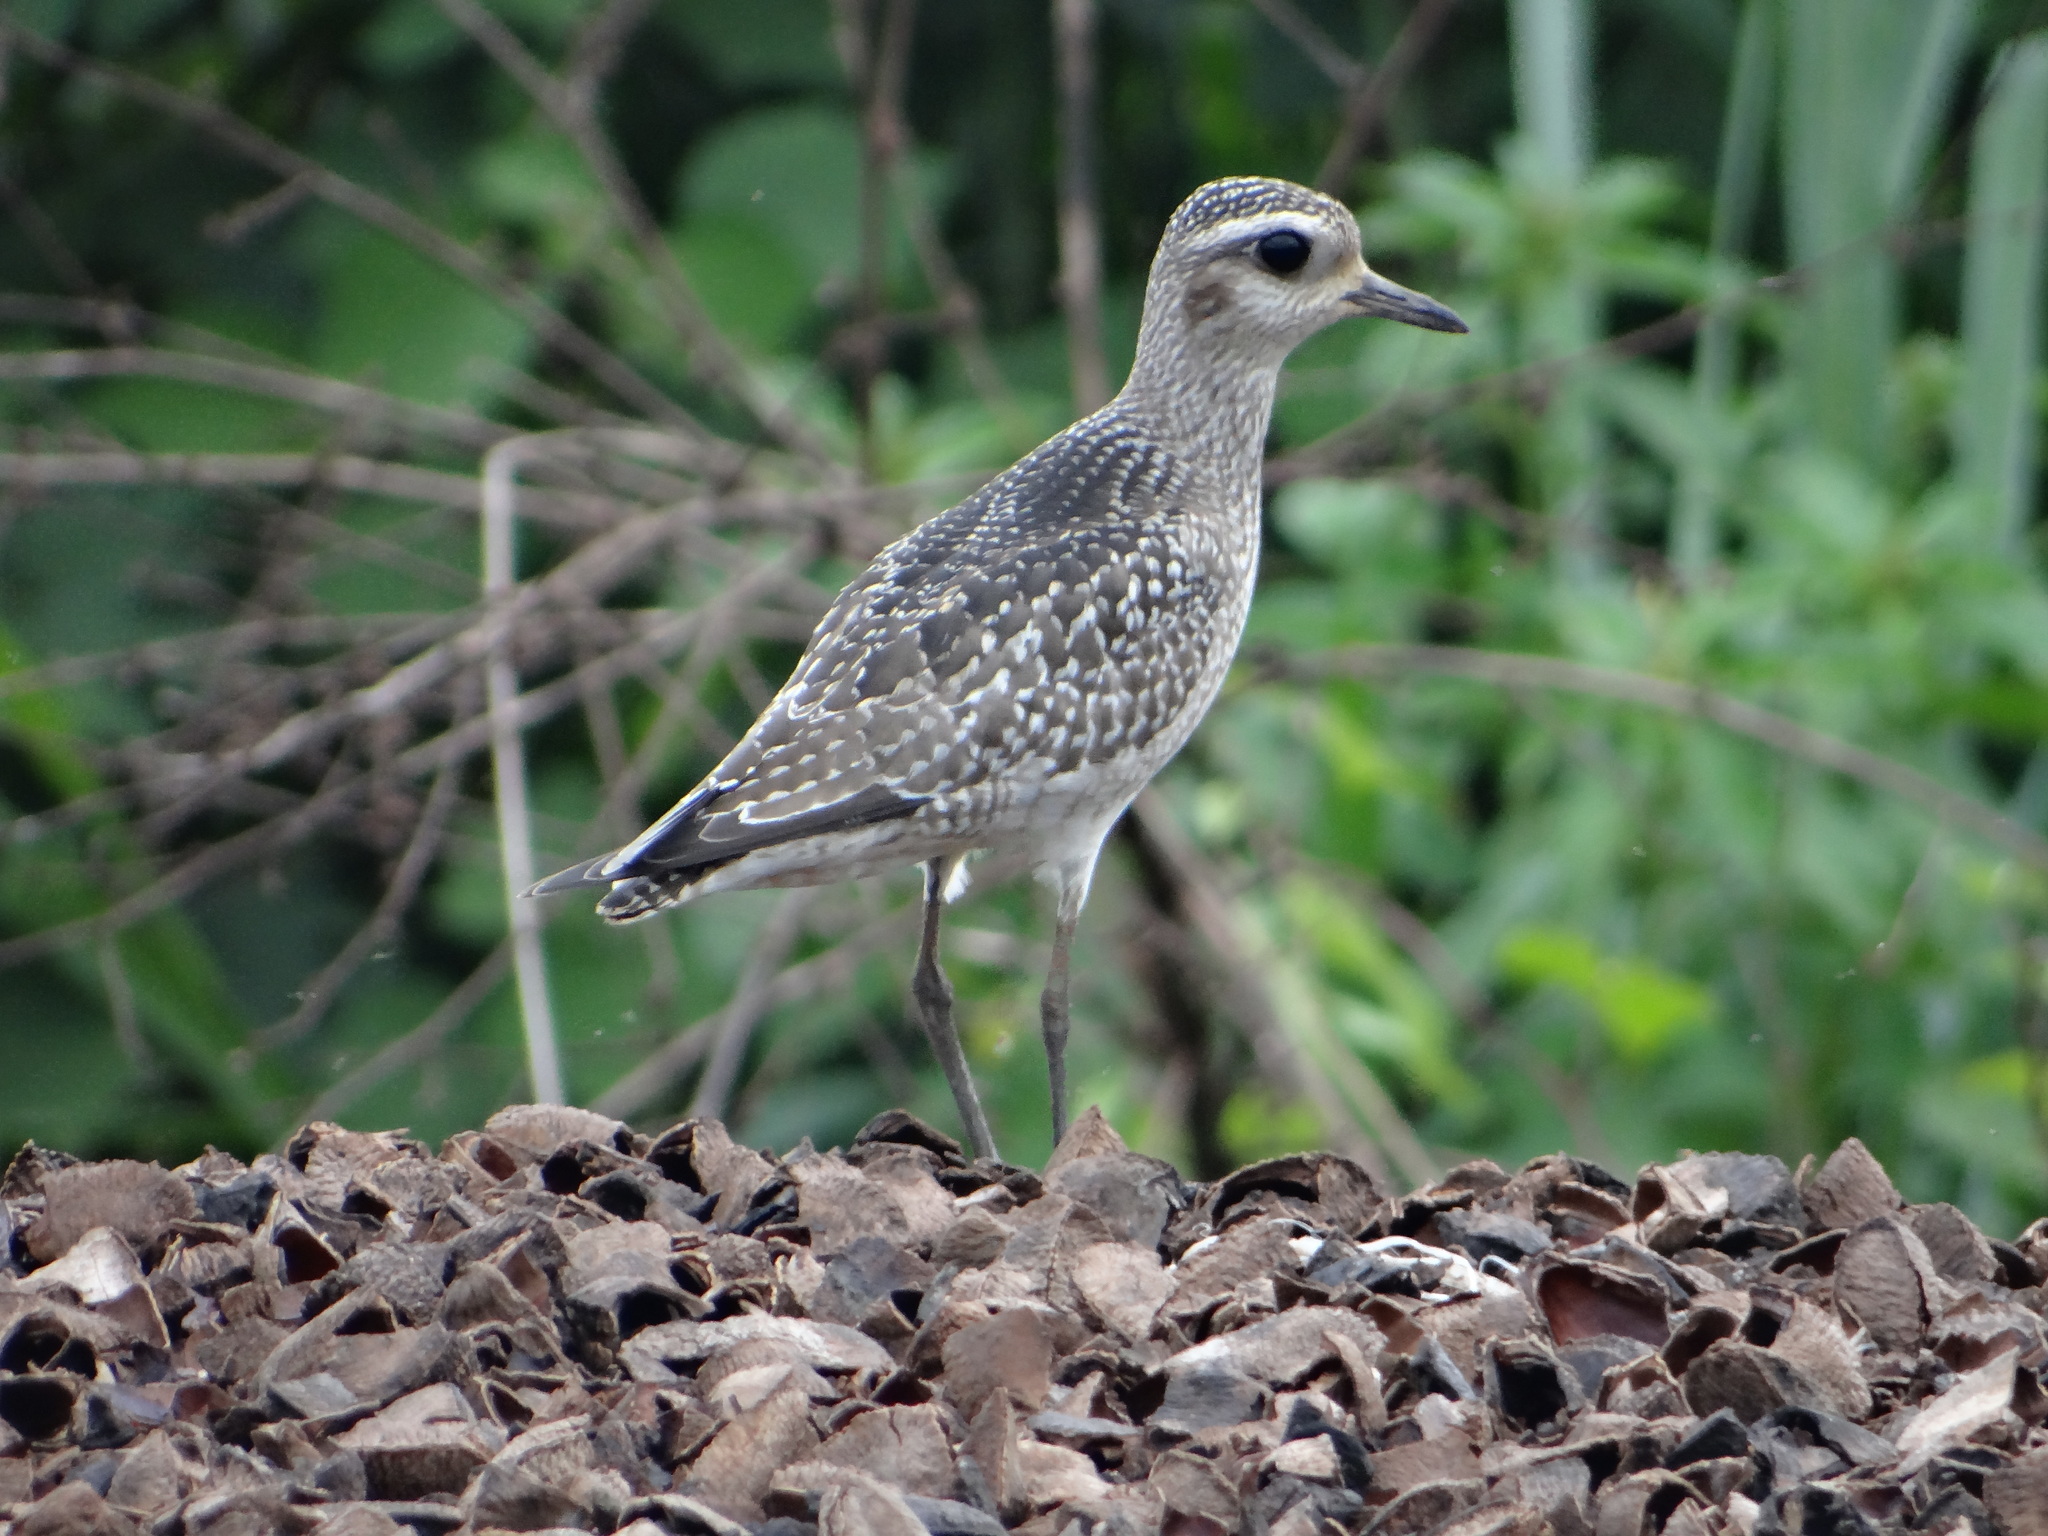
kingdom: Animalia
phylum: Chordata
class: Aves
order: Charadriiformes
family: Charadriidae
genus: Pluvialis
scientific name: Pluvialis dominica
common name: American golden plover
